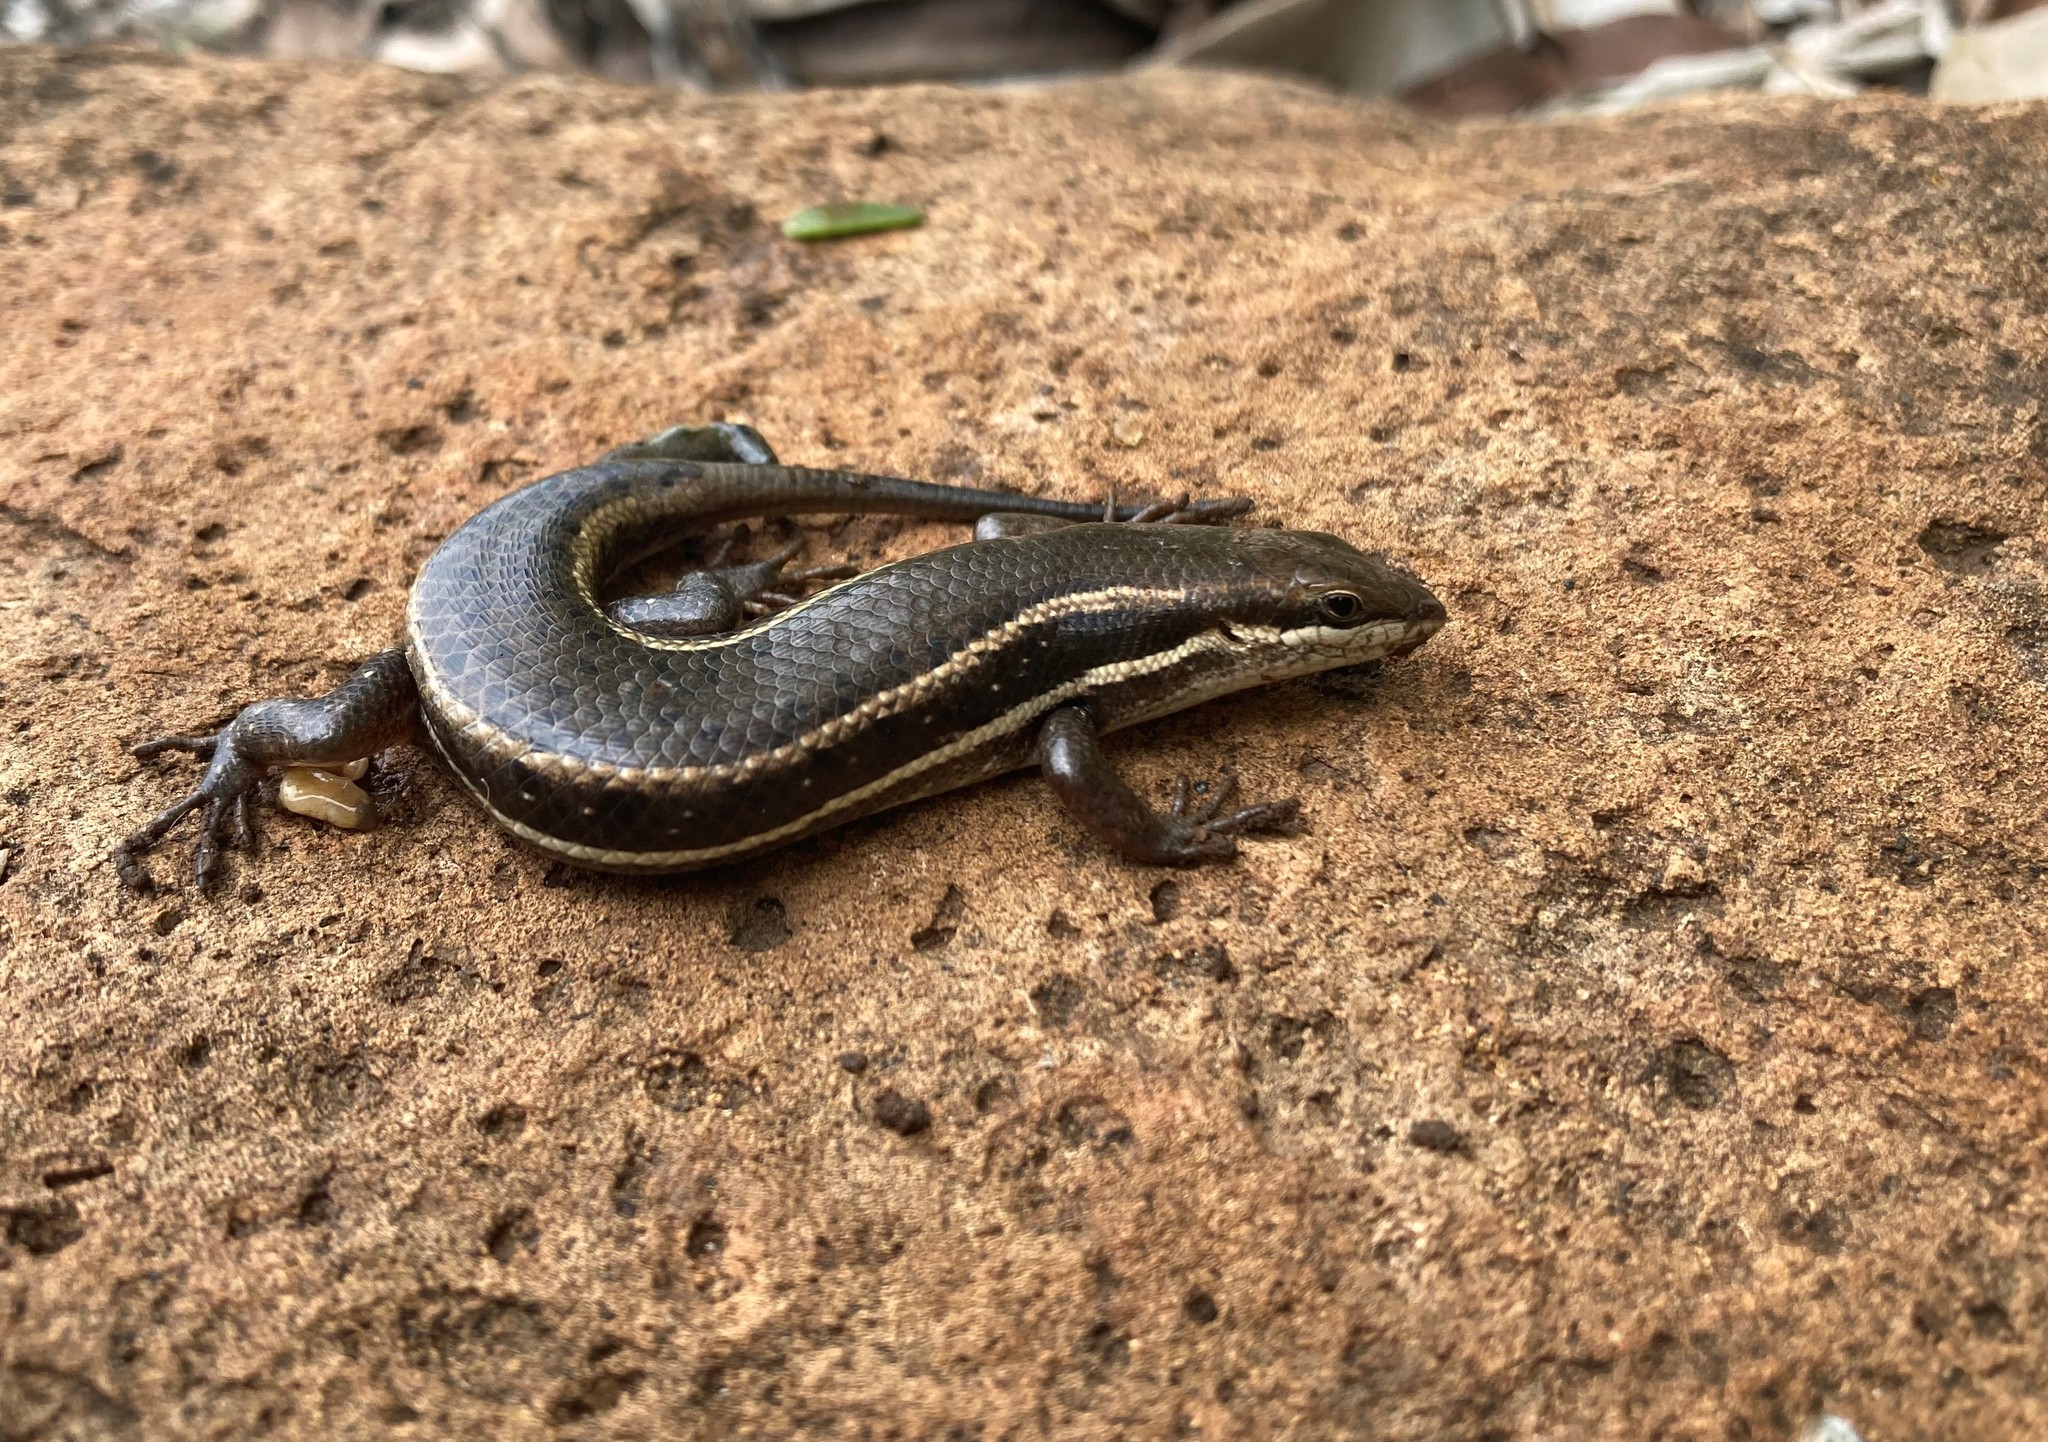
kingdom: Animalia
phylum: Chordata
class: Squamata
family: Scincidae
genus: Trachylepis
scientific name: Trachylepis damarana
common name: Damara skink
